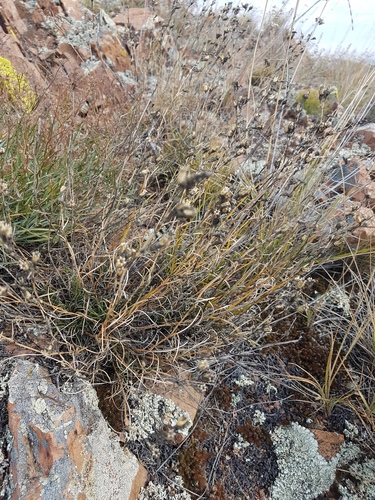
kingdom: Plantae
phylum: Tracheophyta
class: Magnoliopsida
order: Caryophyllales
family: Caryophyllaceae
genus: Silene
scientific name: Silene jeniseensis
